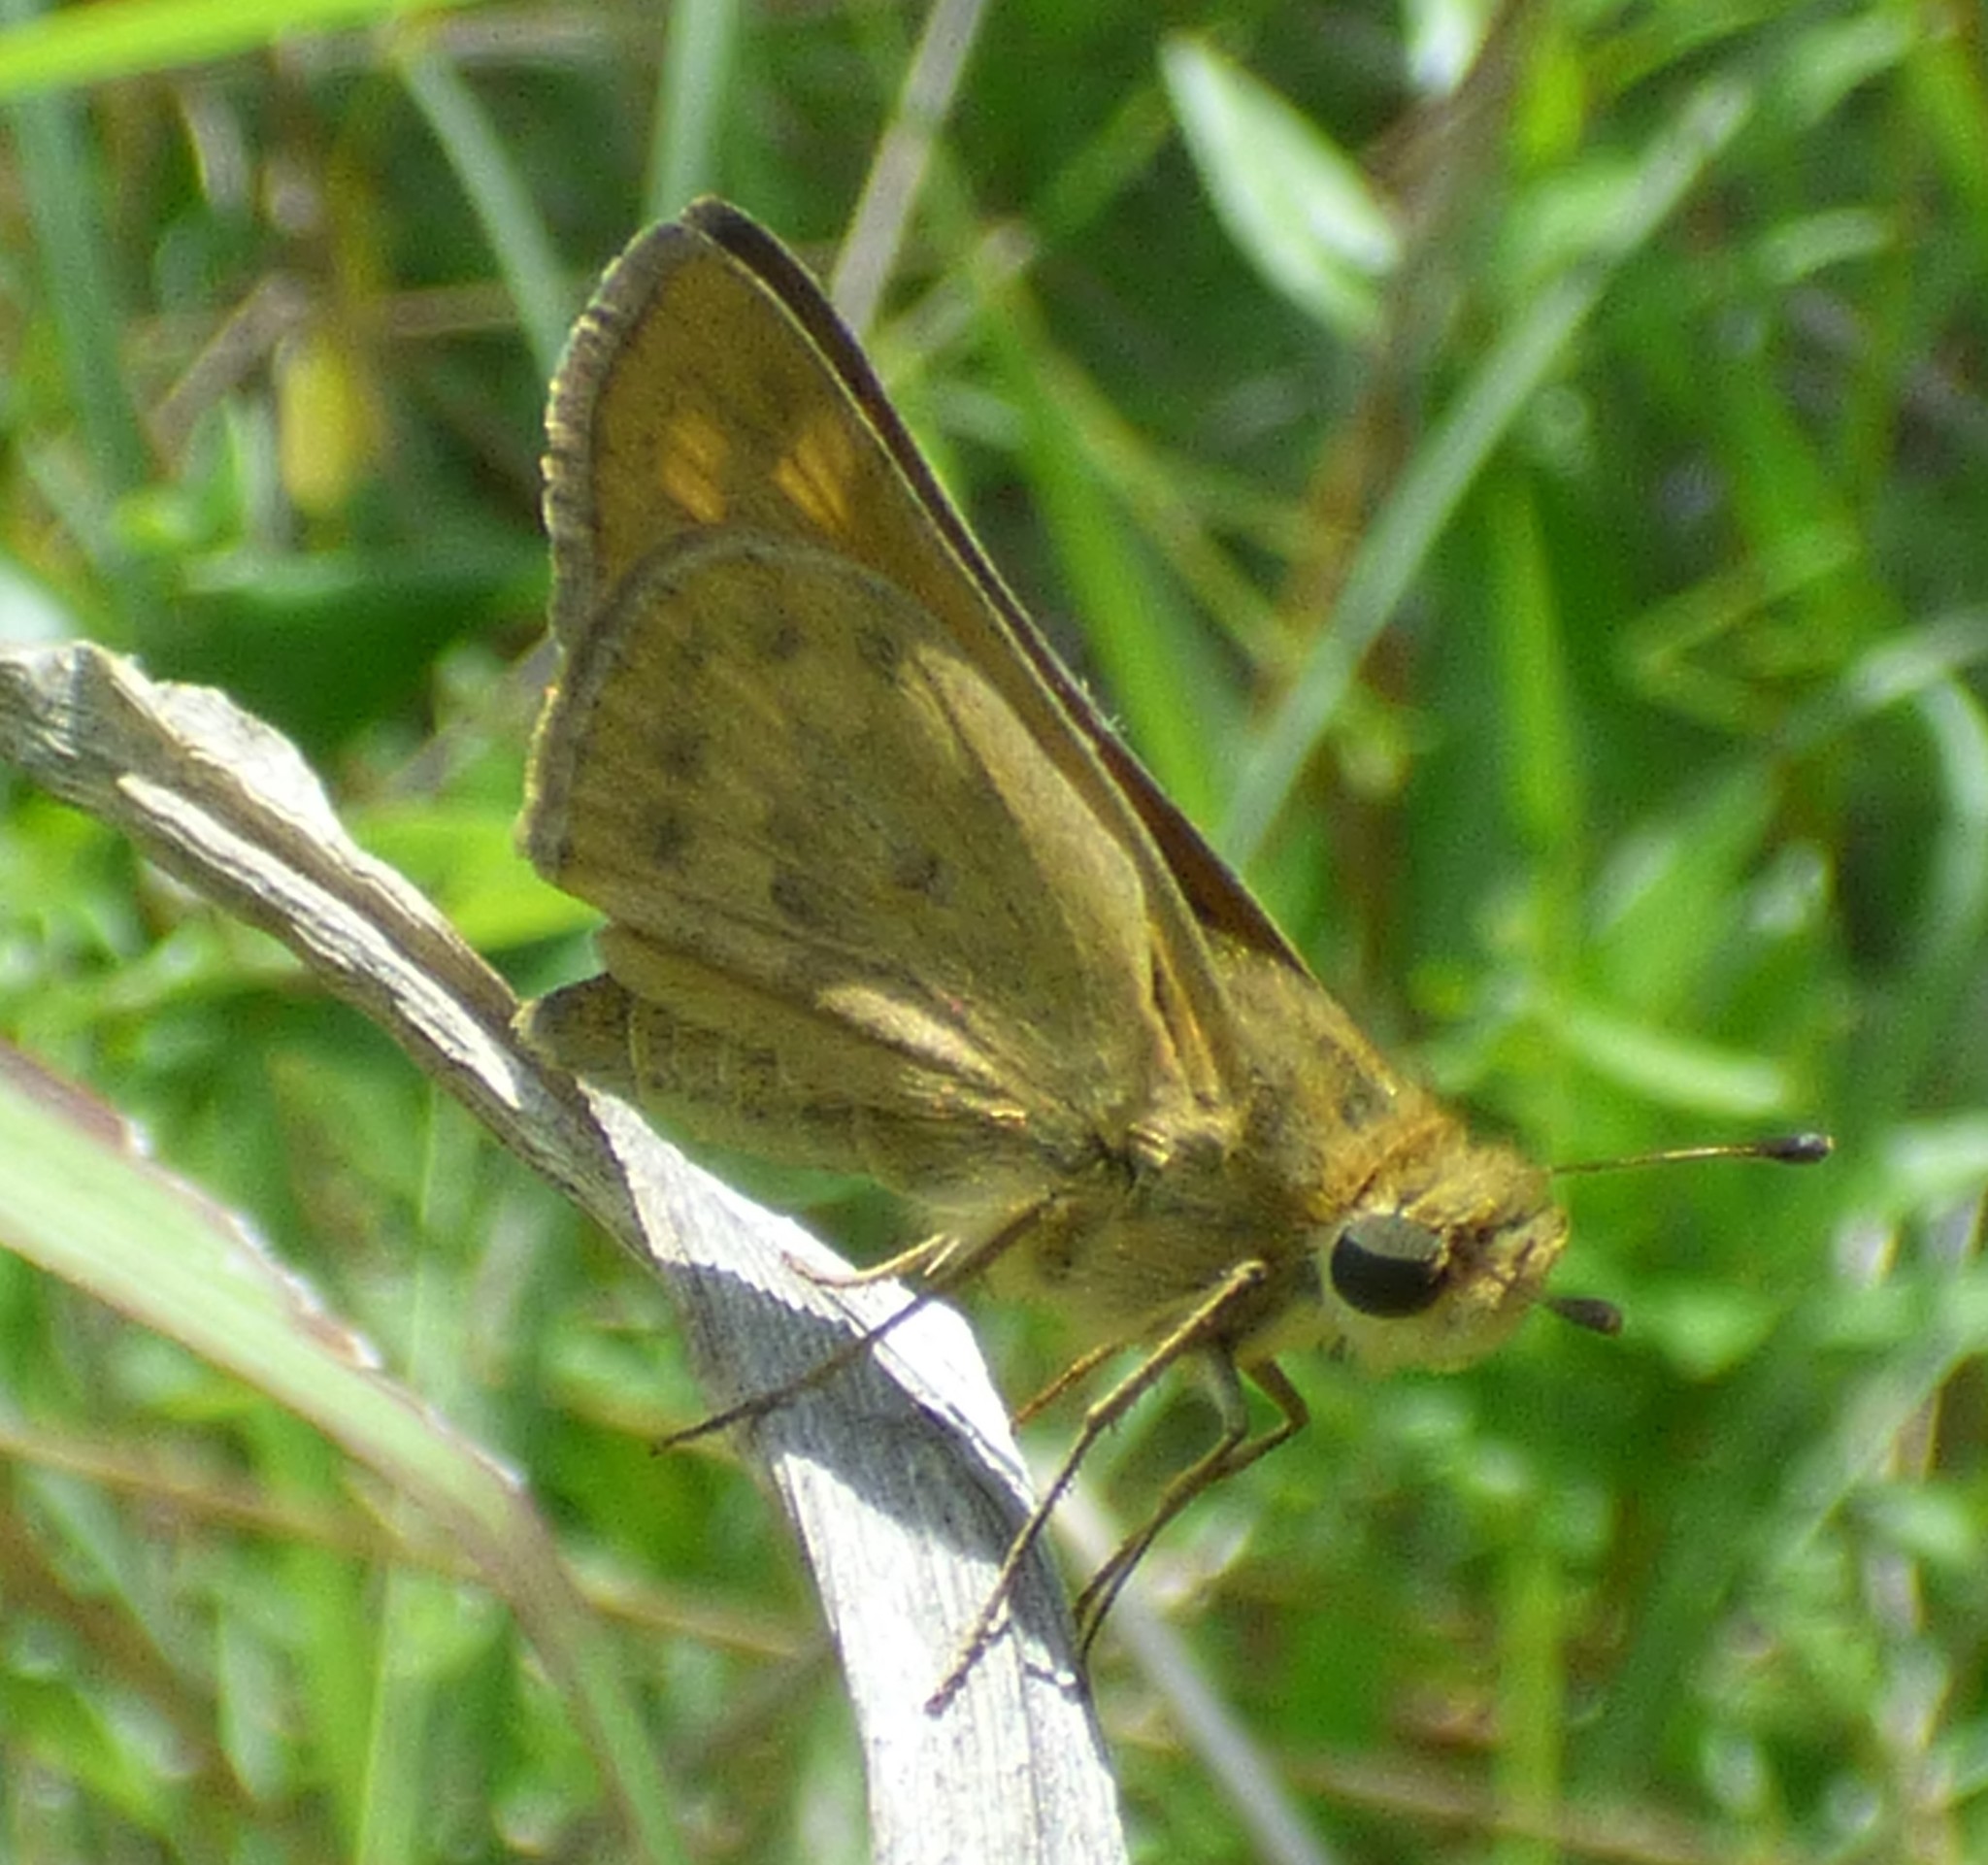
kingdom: Animalia
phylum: Arthropoda
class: Insecta
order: Lepidoptera
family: Hesperiidae
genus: Hylephila
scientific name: Hylephila phyleus
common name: Fiery skipper
